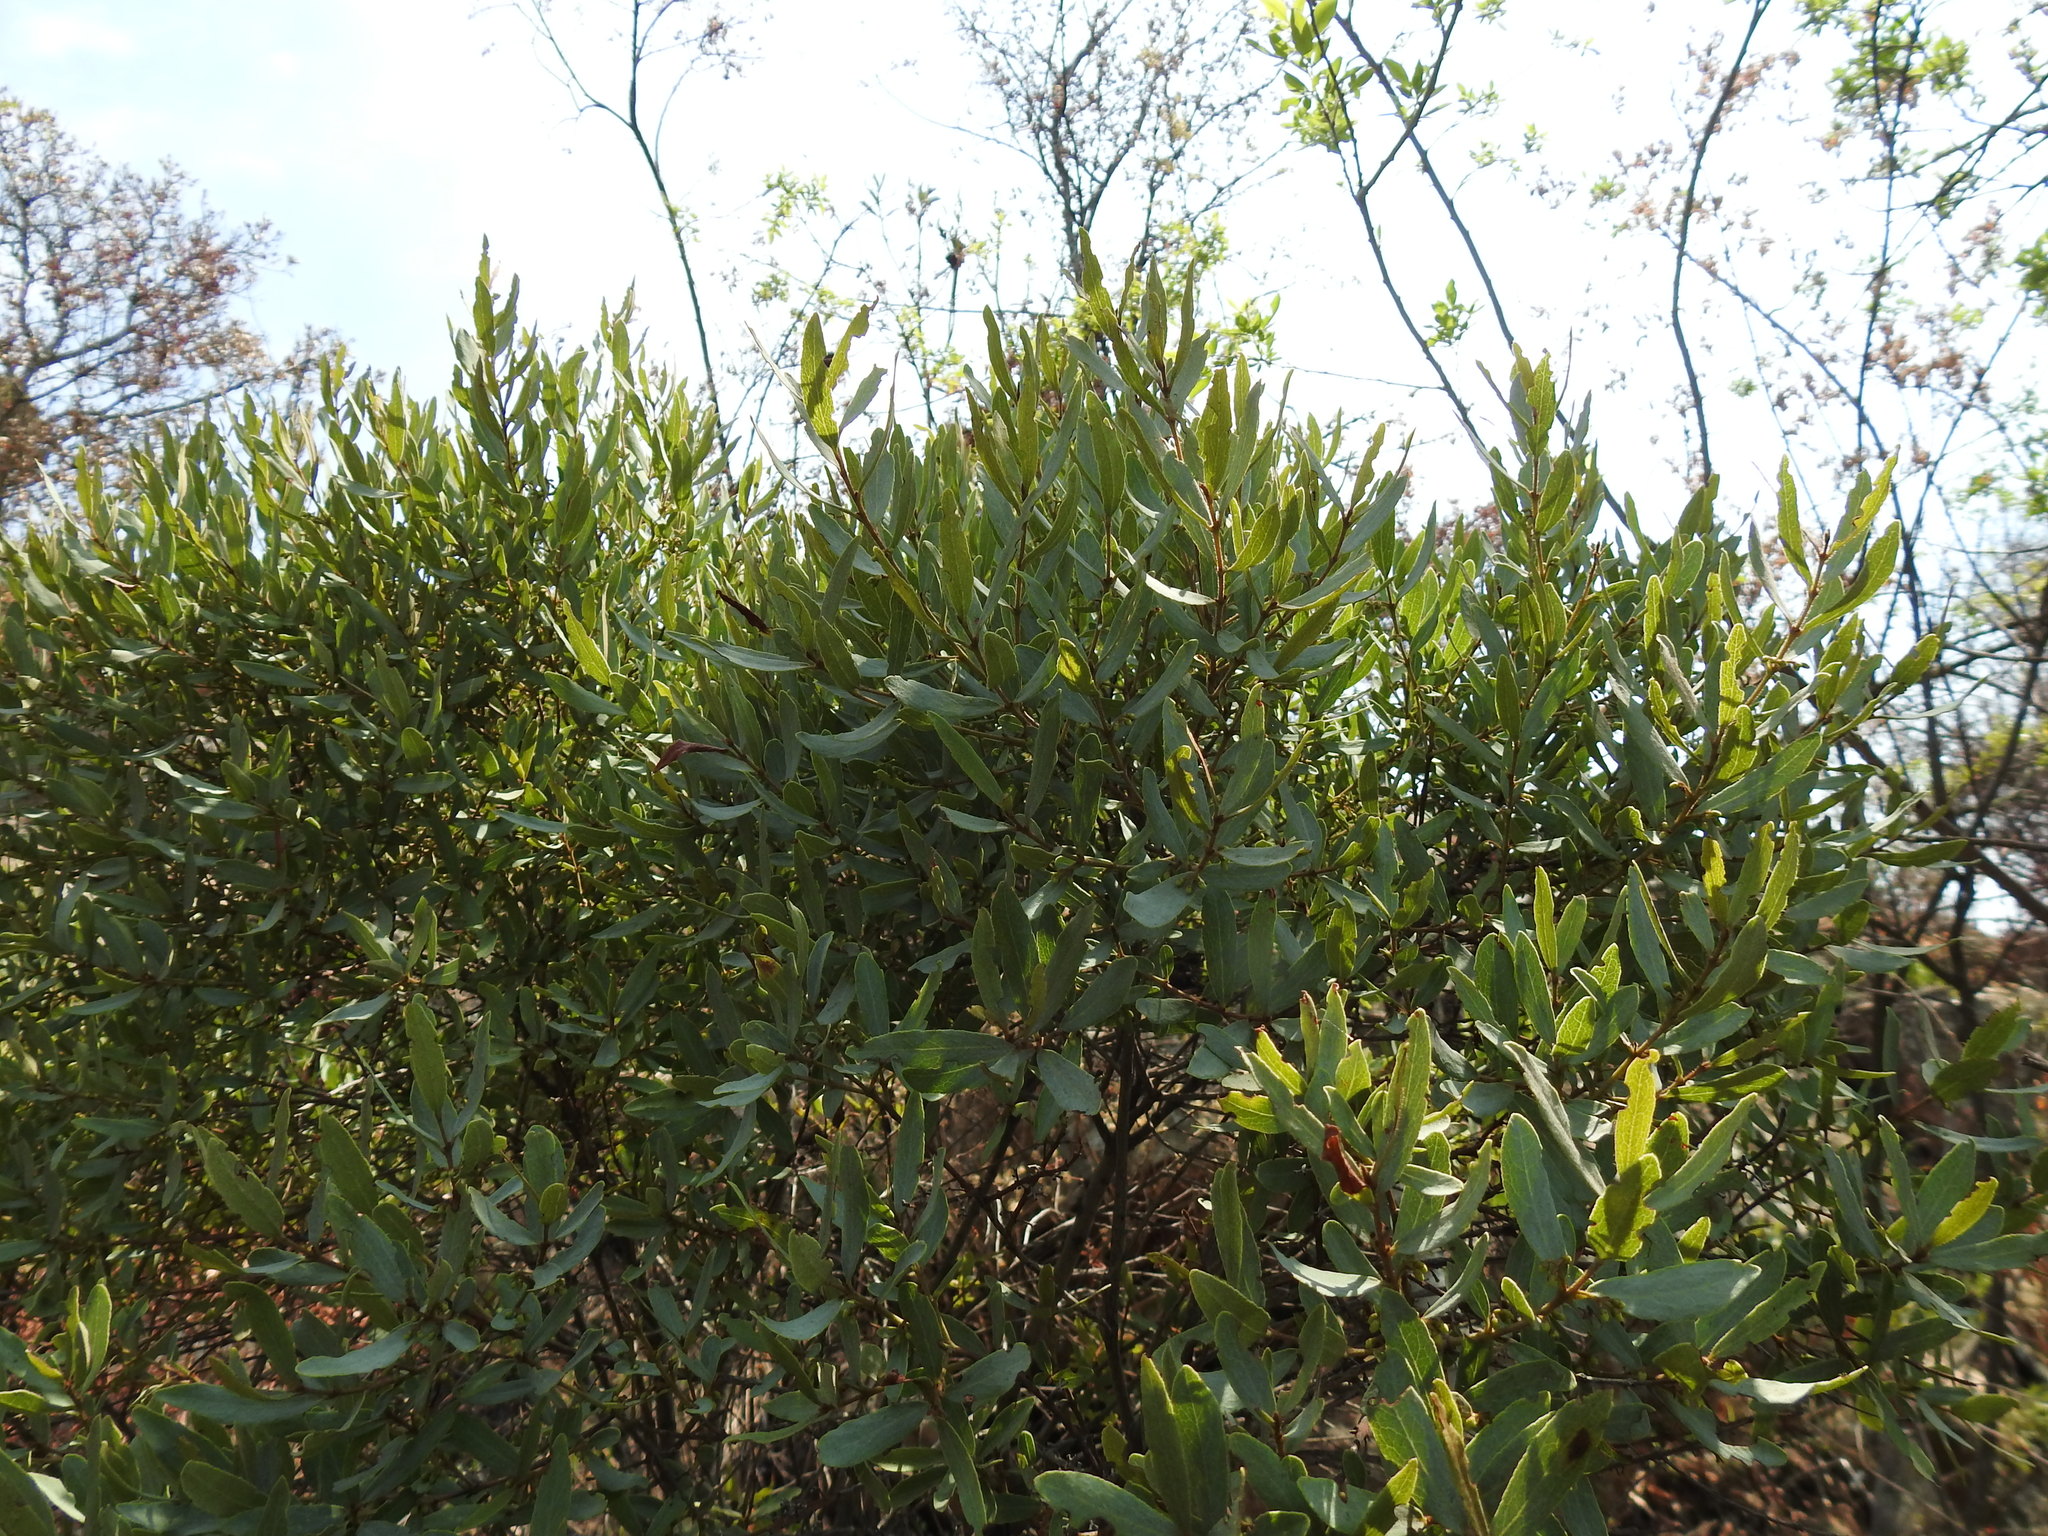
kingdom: Plantae
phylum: Tracheophyta
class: Magnoliopsida
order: Ericales
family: Ebenaceae
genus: Euclea
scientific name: Euclea crispa
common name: Blue guarri
